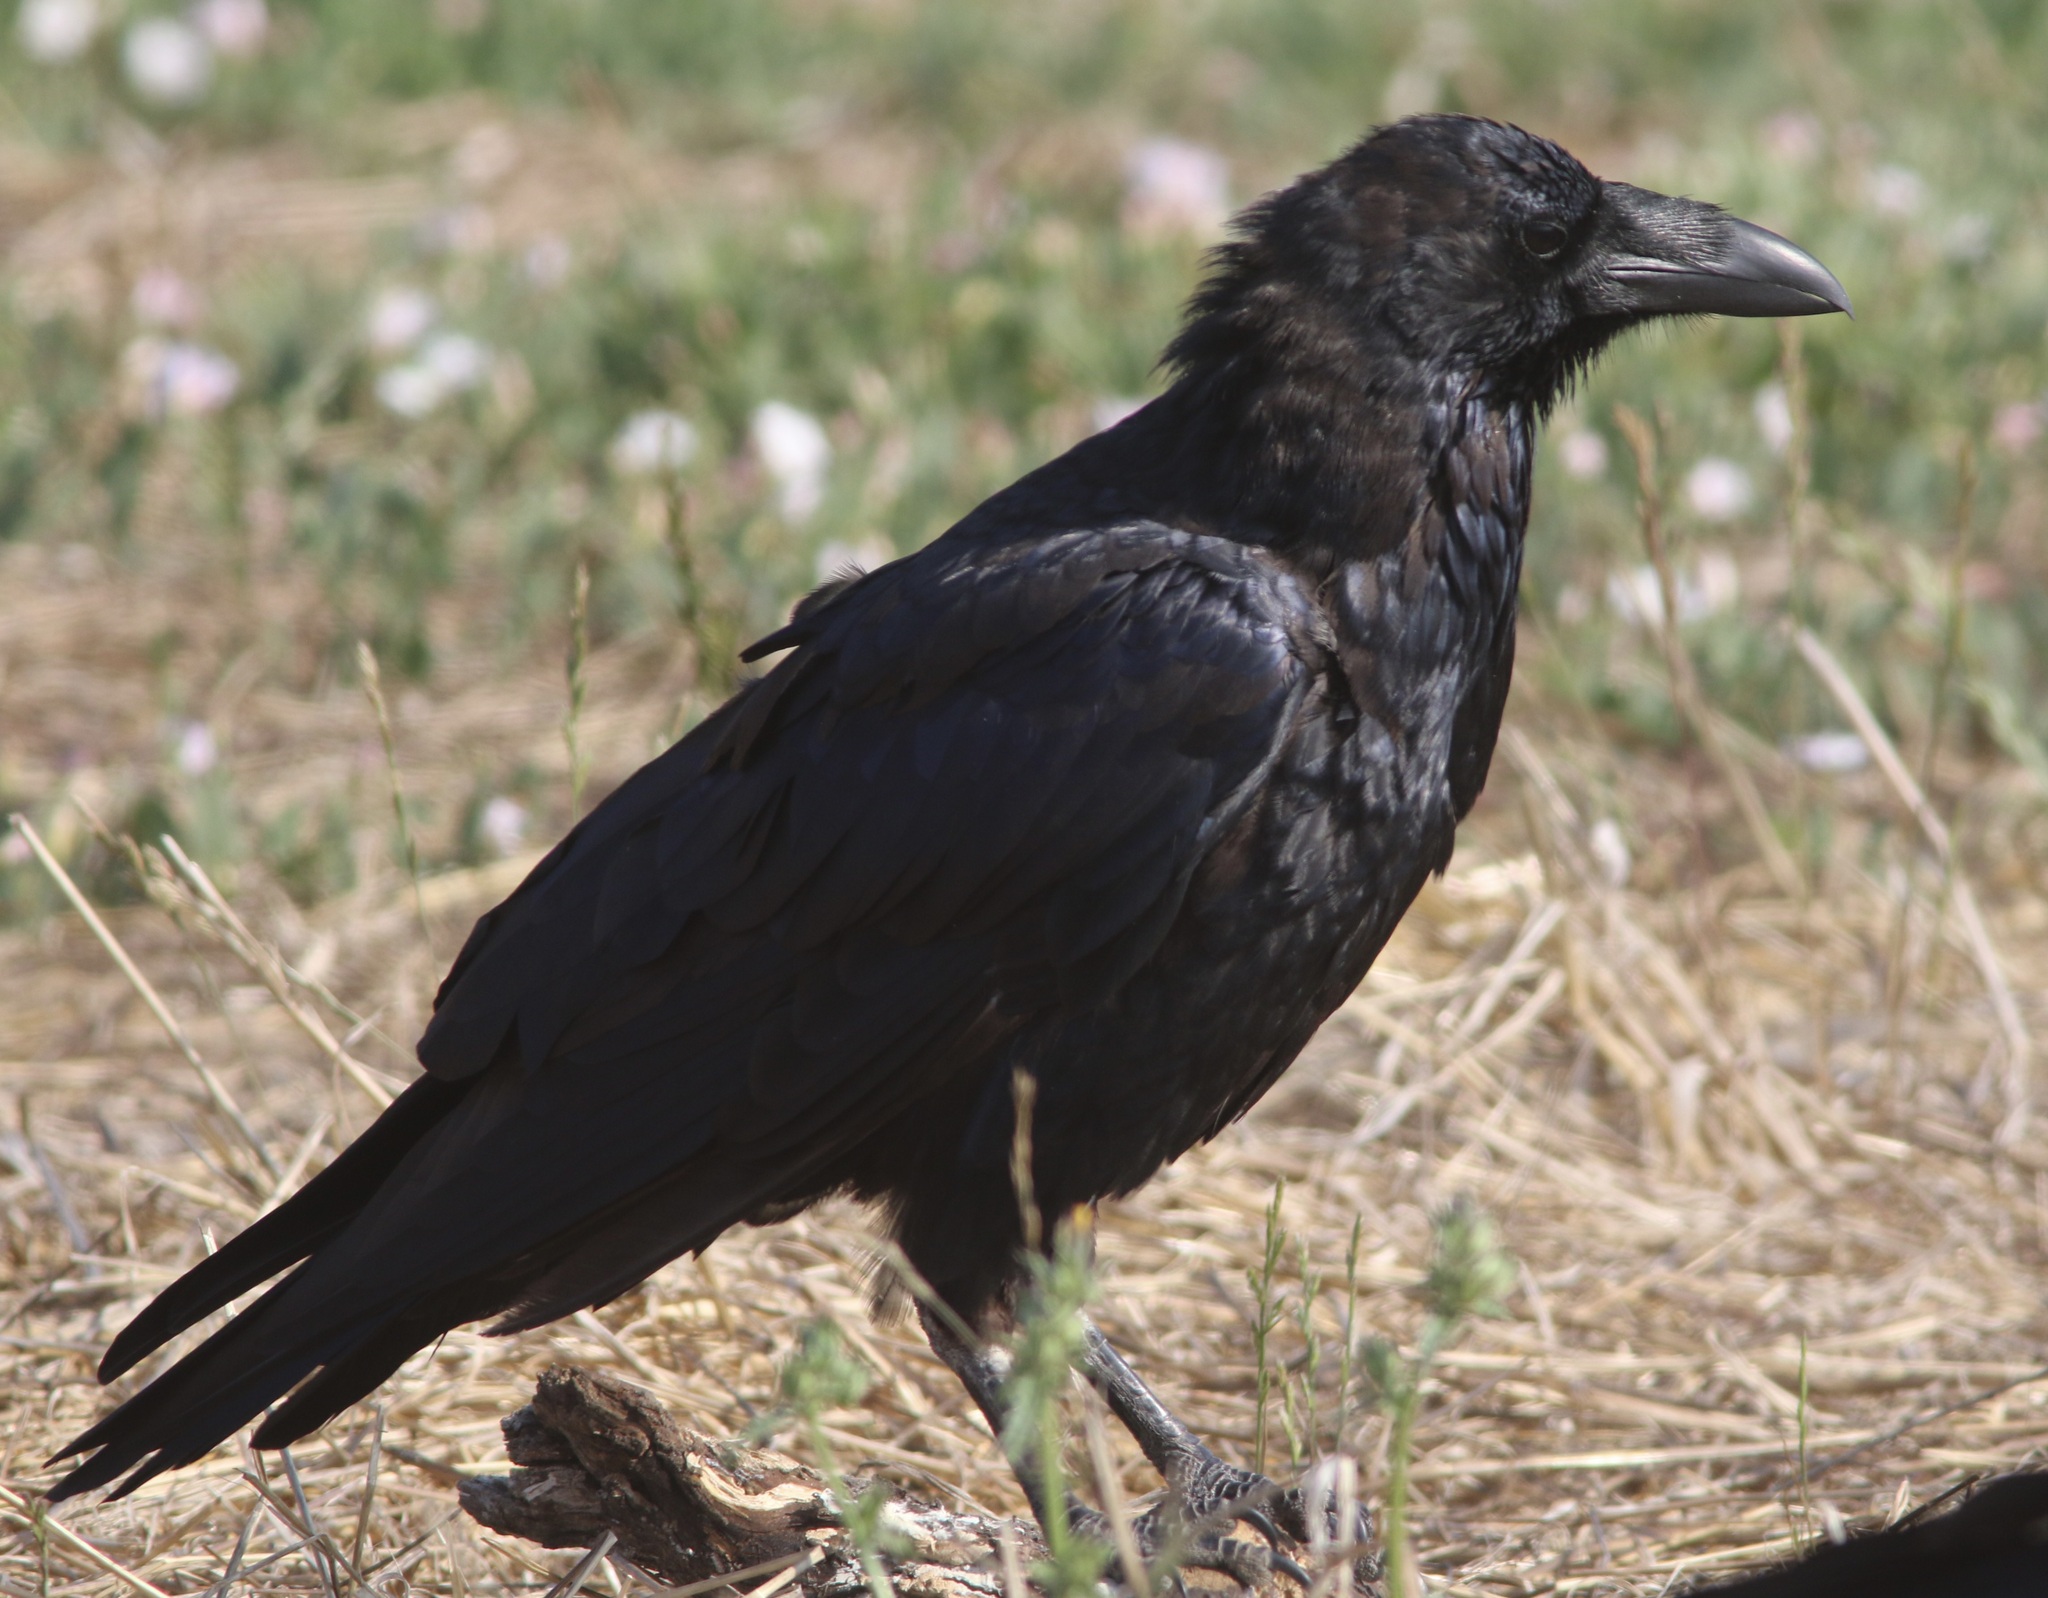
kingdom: Animalia
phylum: Chordata
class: Aves
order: Passeriformes
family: Corvidae
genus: Corvus
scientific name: Corvus corax
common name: Common raven
